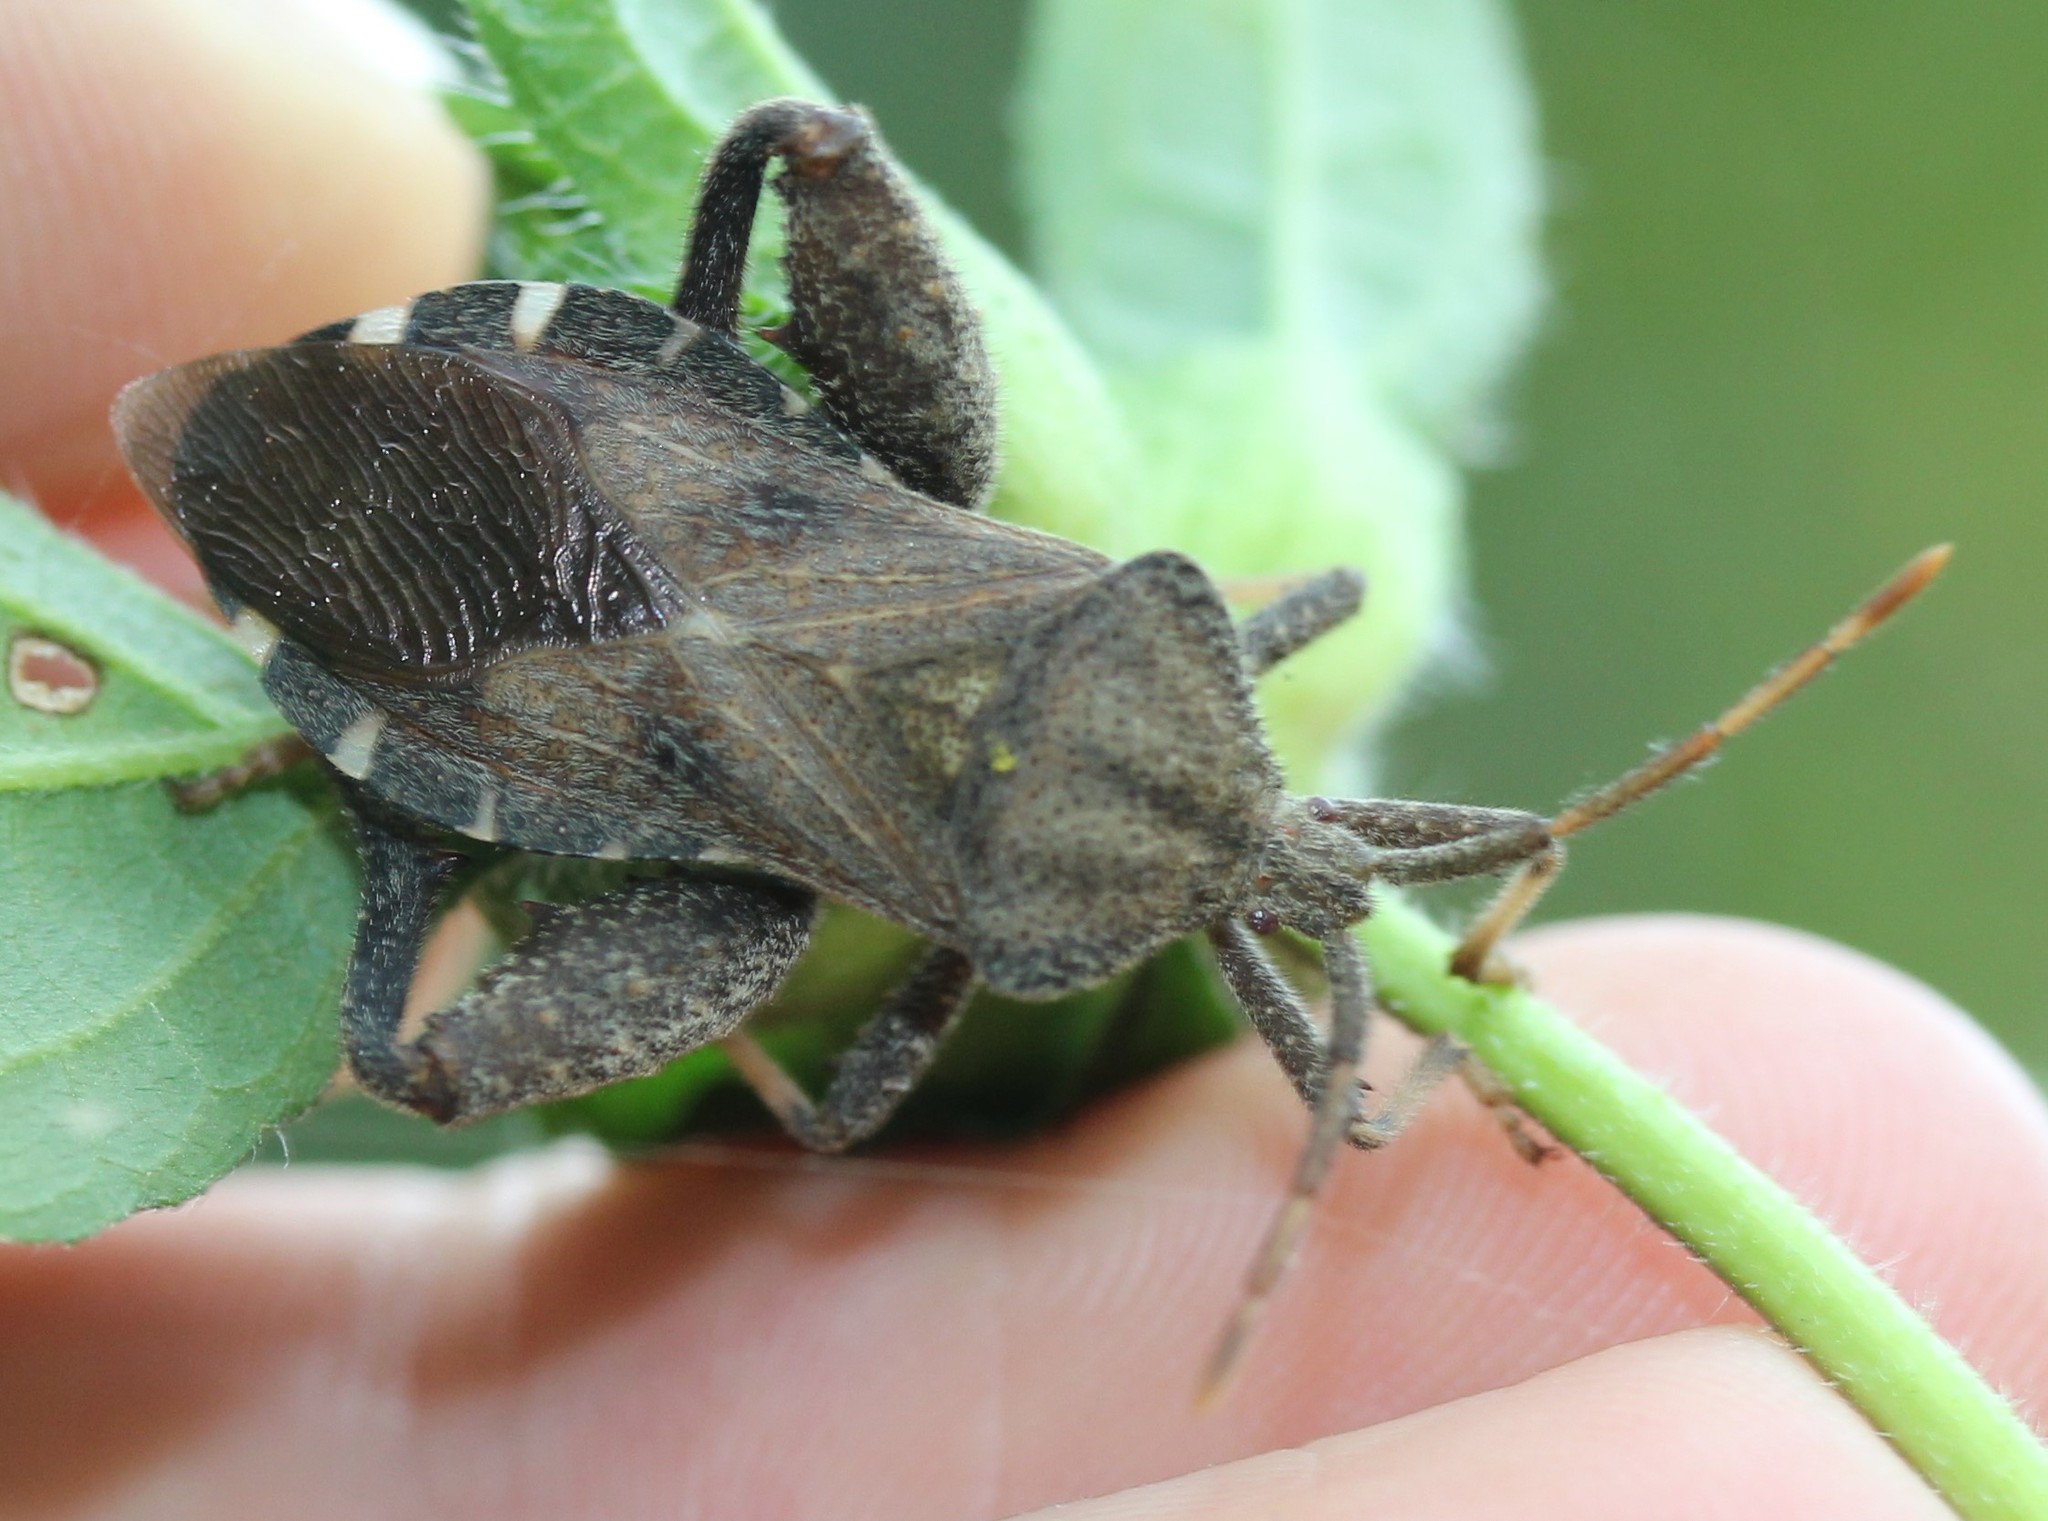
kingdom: Animalia
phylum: Arthropoda
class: Insecta
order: Hemiptera
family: Coreidae
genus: Piezogaster
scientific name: Piezogaster calcarator
